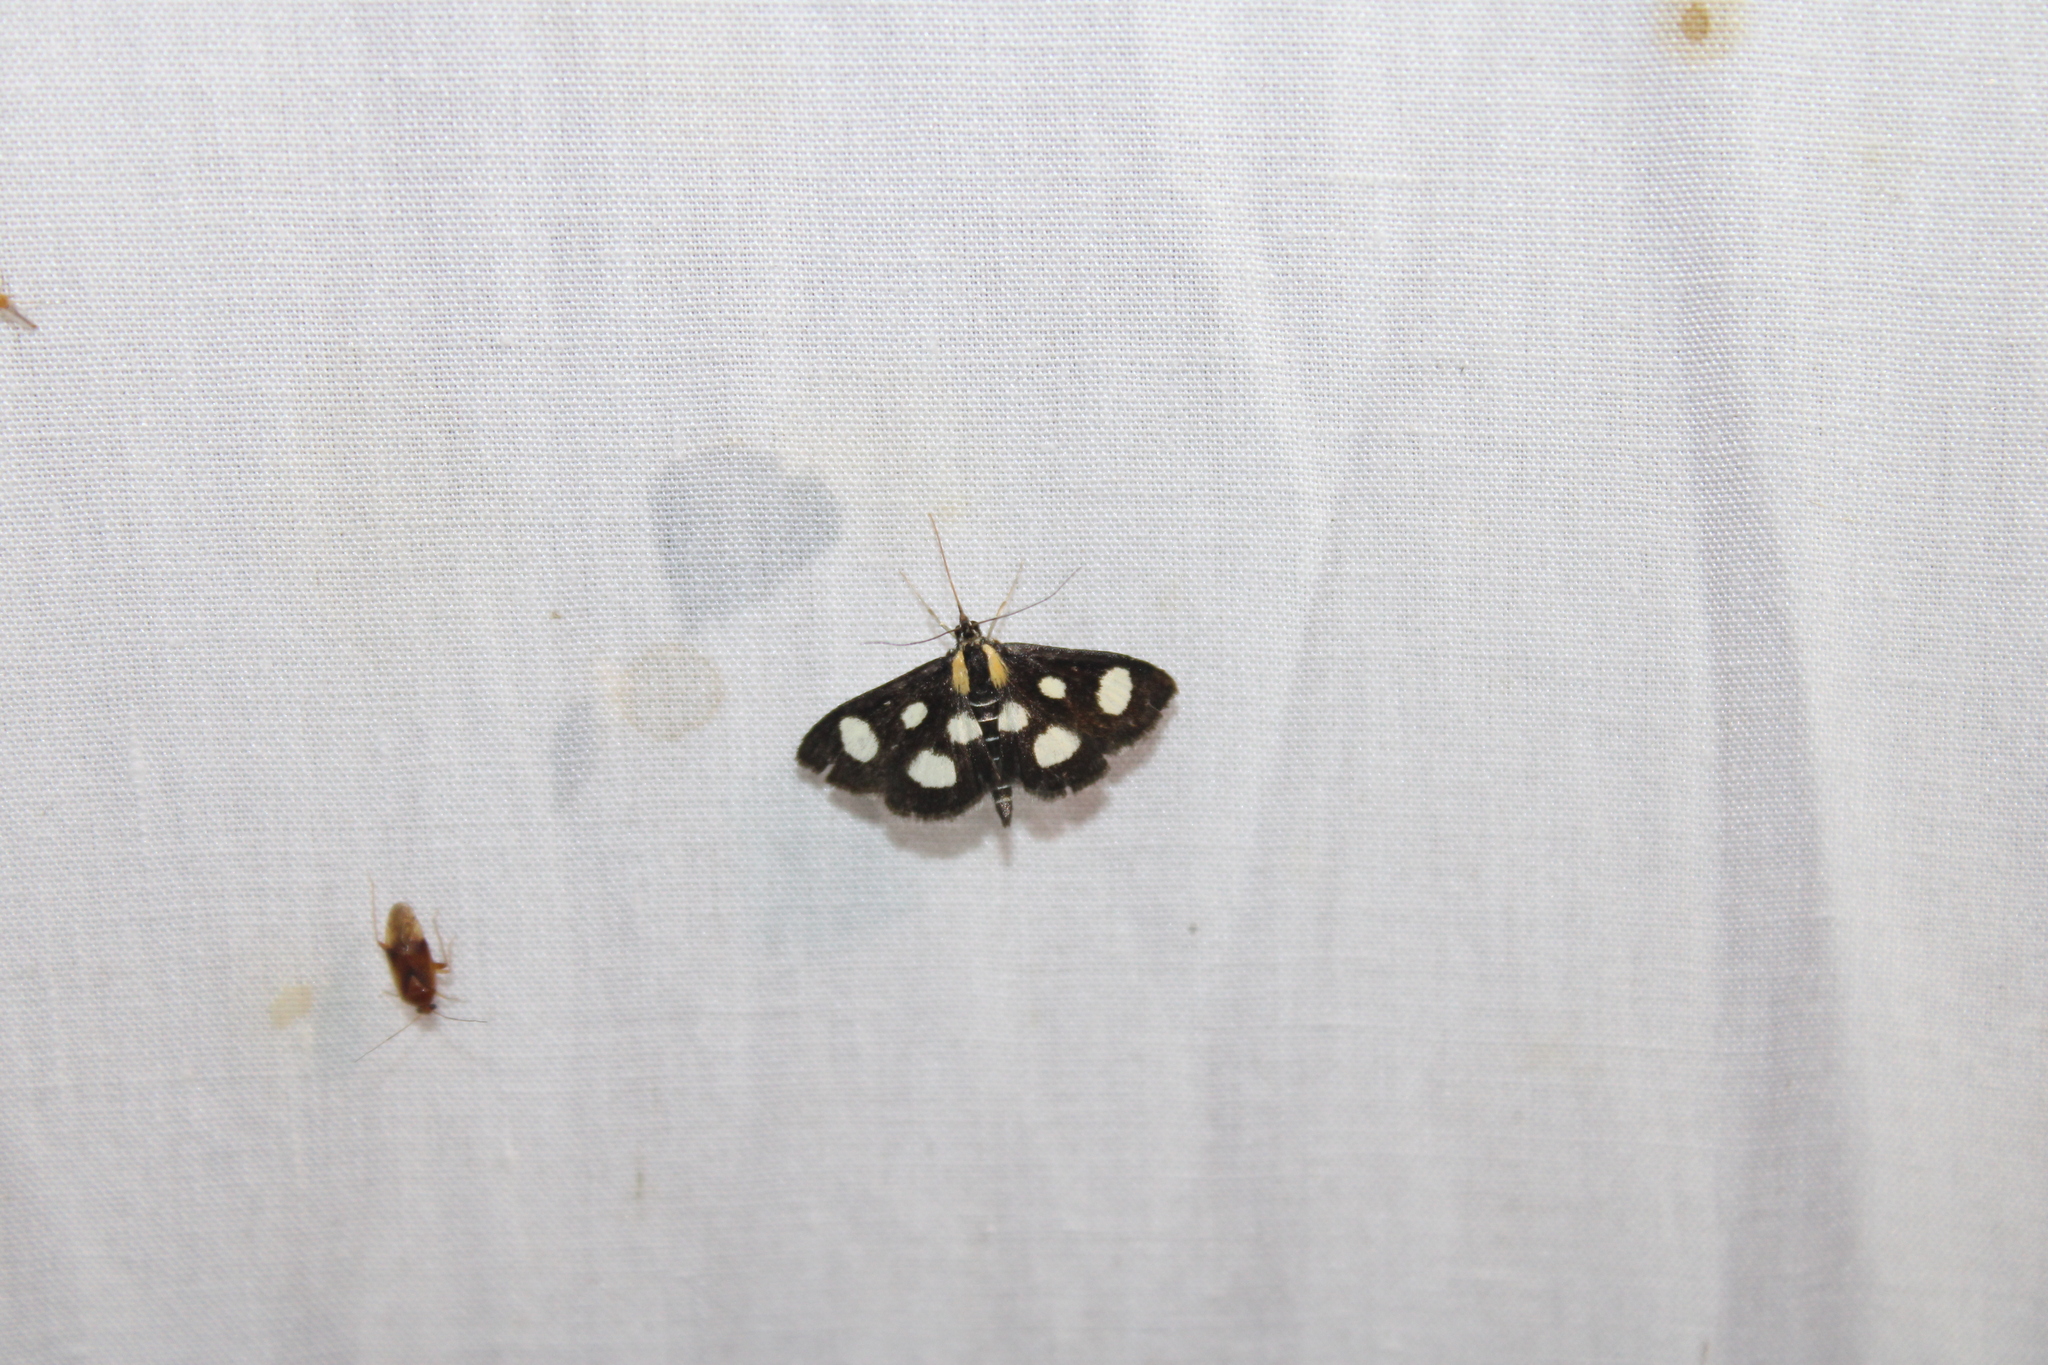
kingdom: Animalia
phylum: Arthropoda
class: Insecta
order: Lepidoptera
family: Crambidae
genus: Anania
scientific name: Anania funebris
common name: White-spotted sable moth
